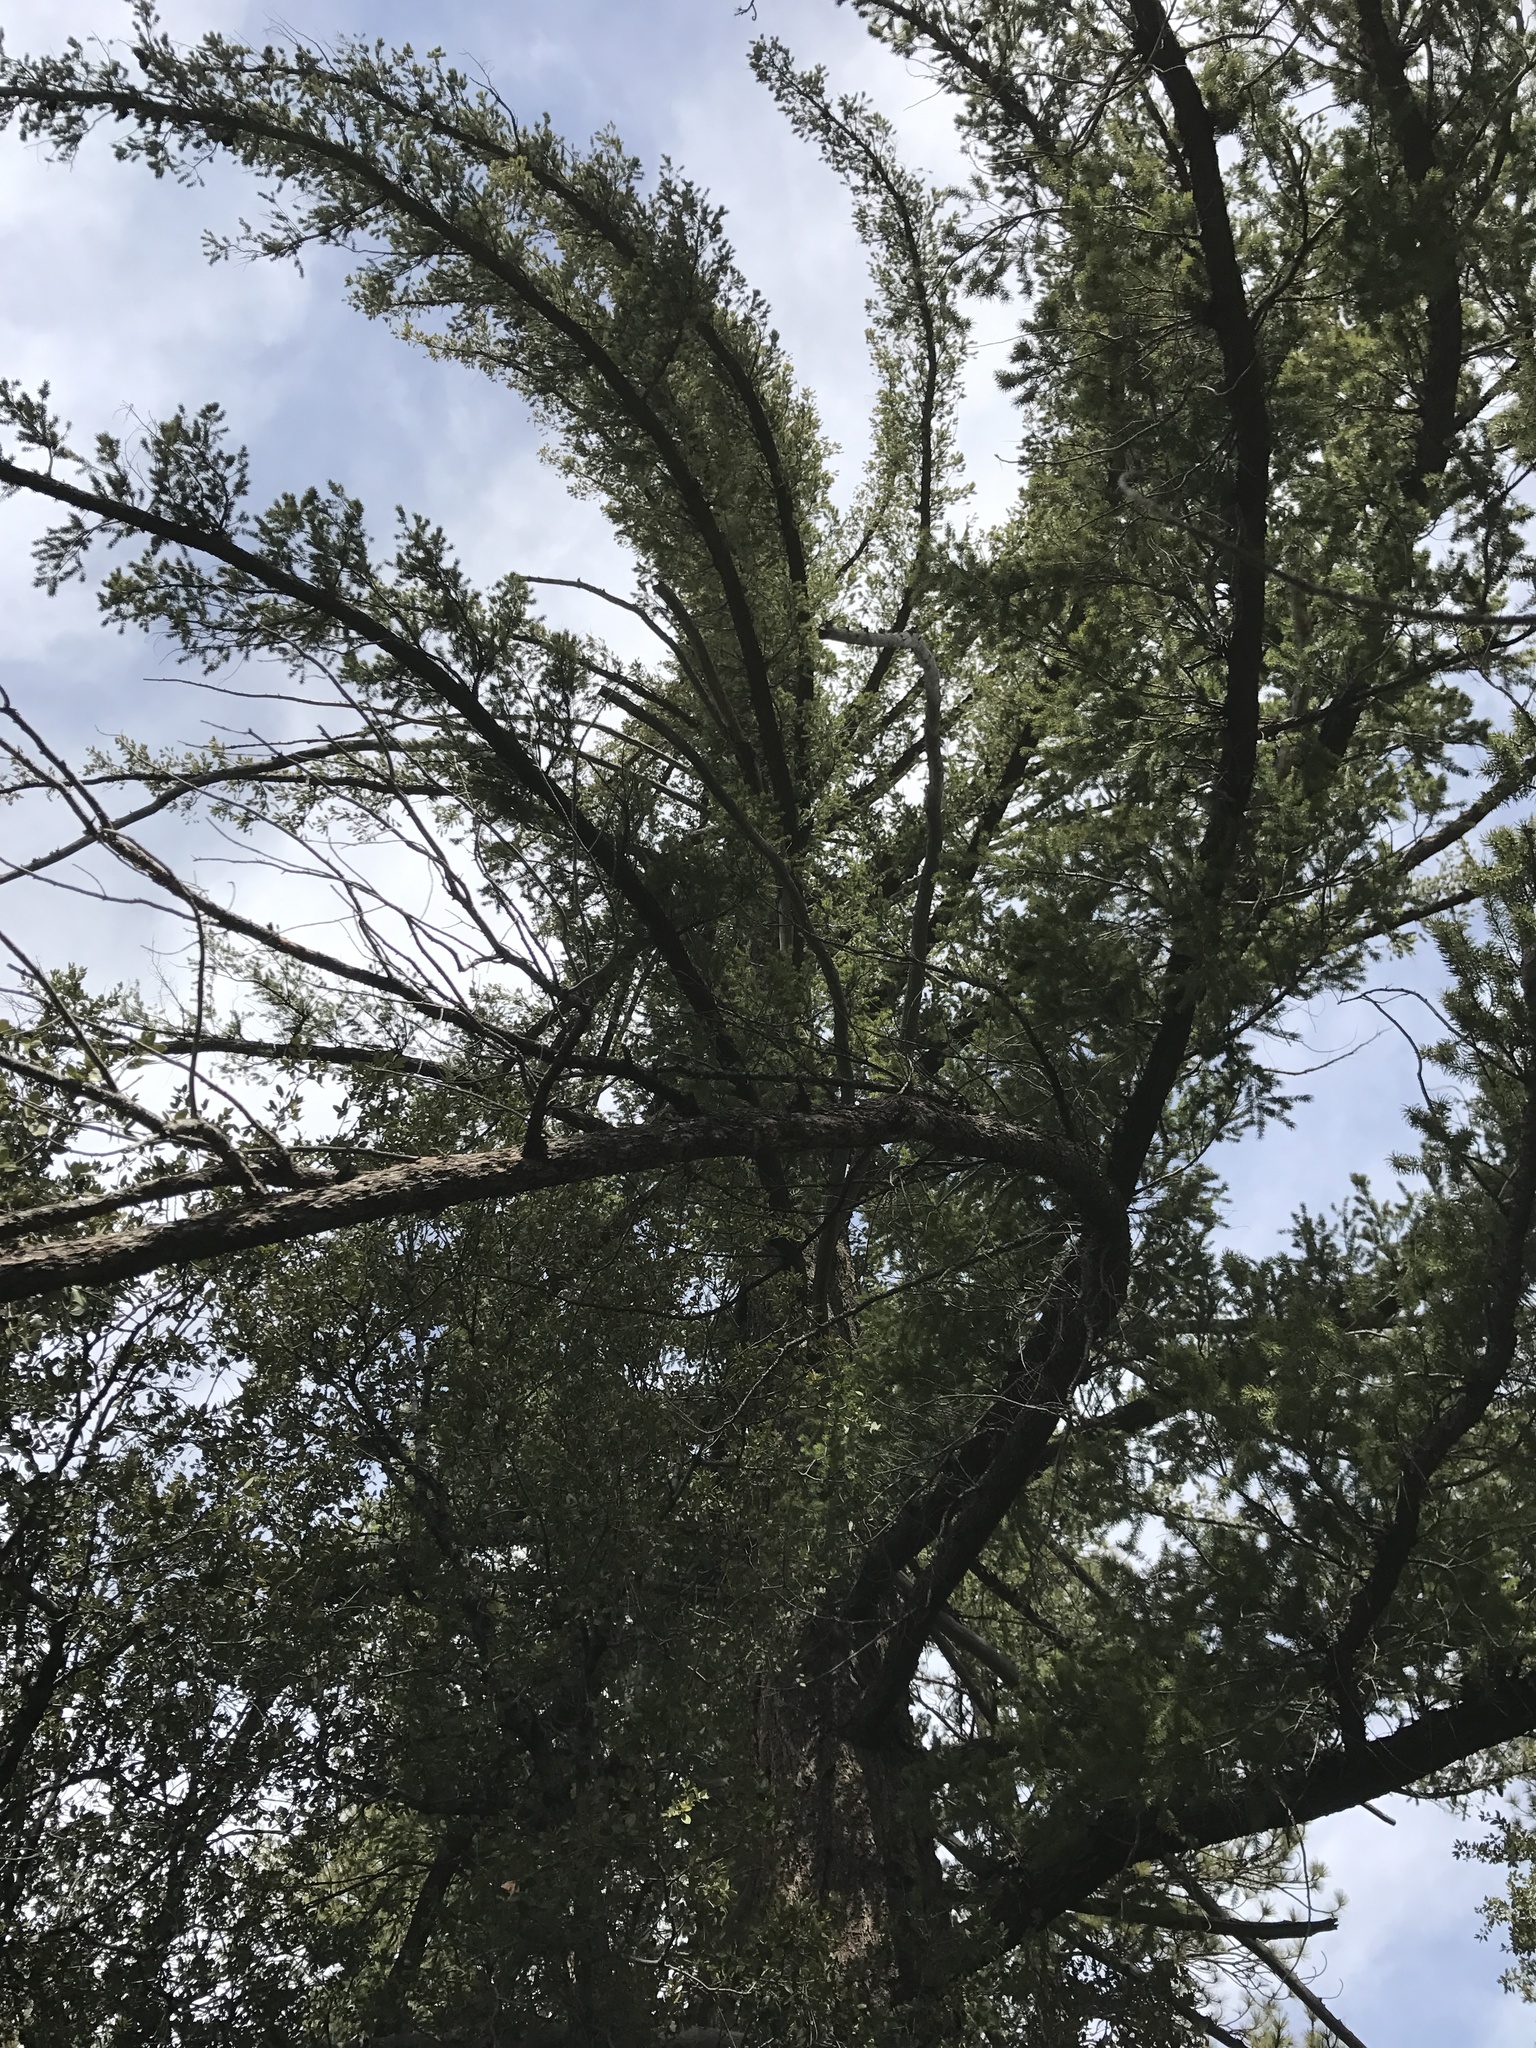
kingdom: Plantae
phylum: Tracheophyta
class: Pinopsida
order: Pinales
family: Pinaceae
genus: Pseudotsuga
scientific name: Pseudotsuga macrocarpa
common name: Big-cone douglas-fir
